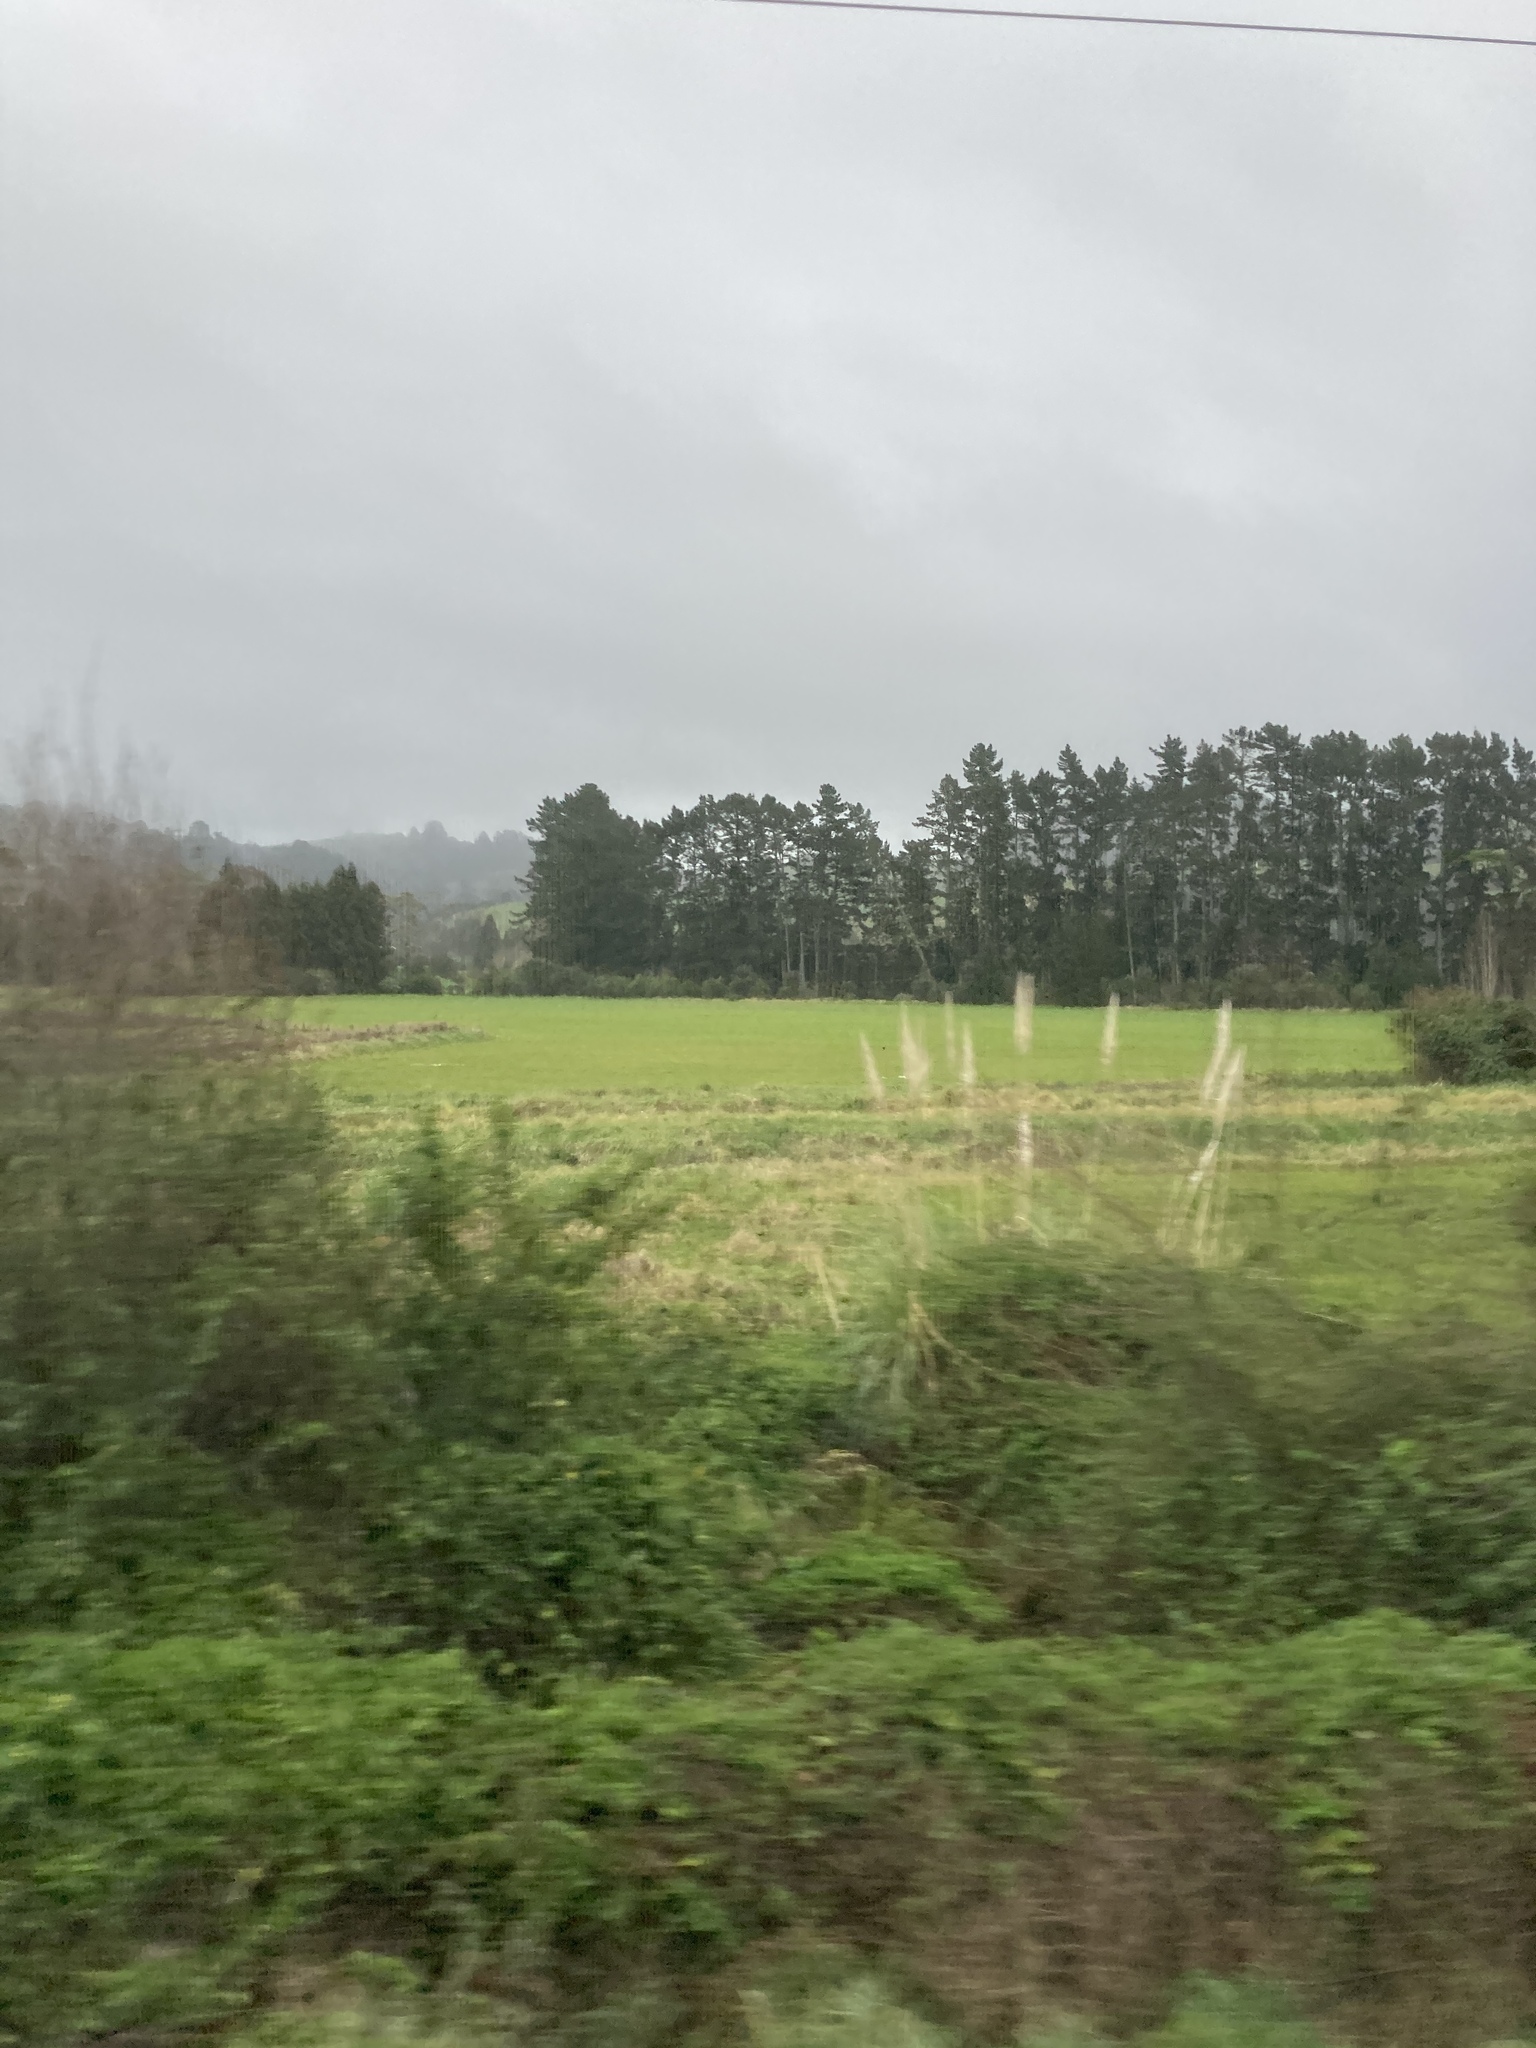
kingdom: Plantae
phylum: Tracheophyta
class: Liliopsida
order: Poales
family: Poaceae
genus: Cortaderia
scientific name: Cortaderia selloana
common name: Uruguayan pampas grass
